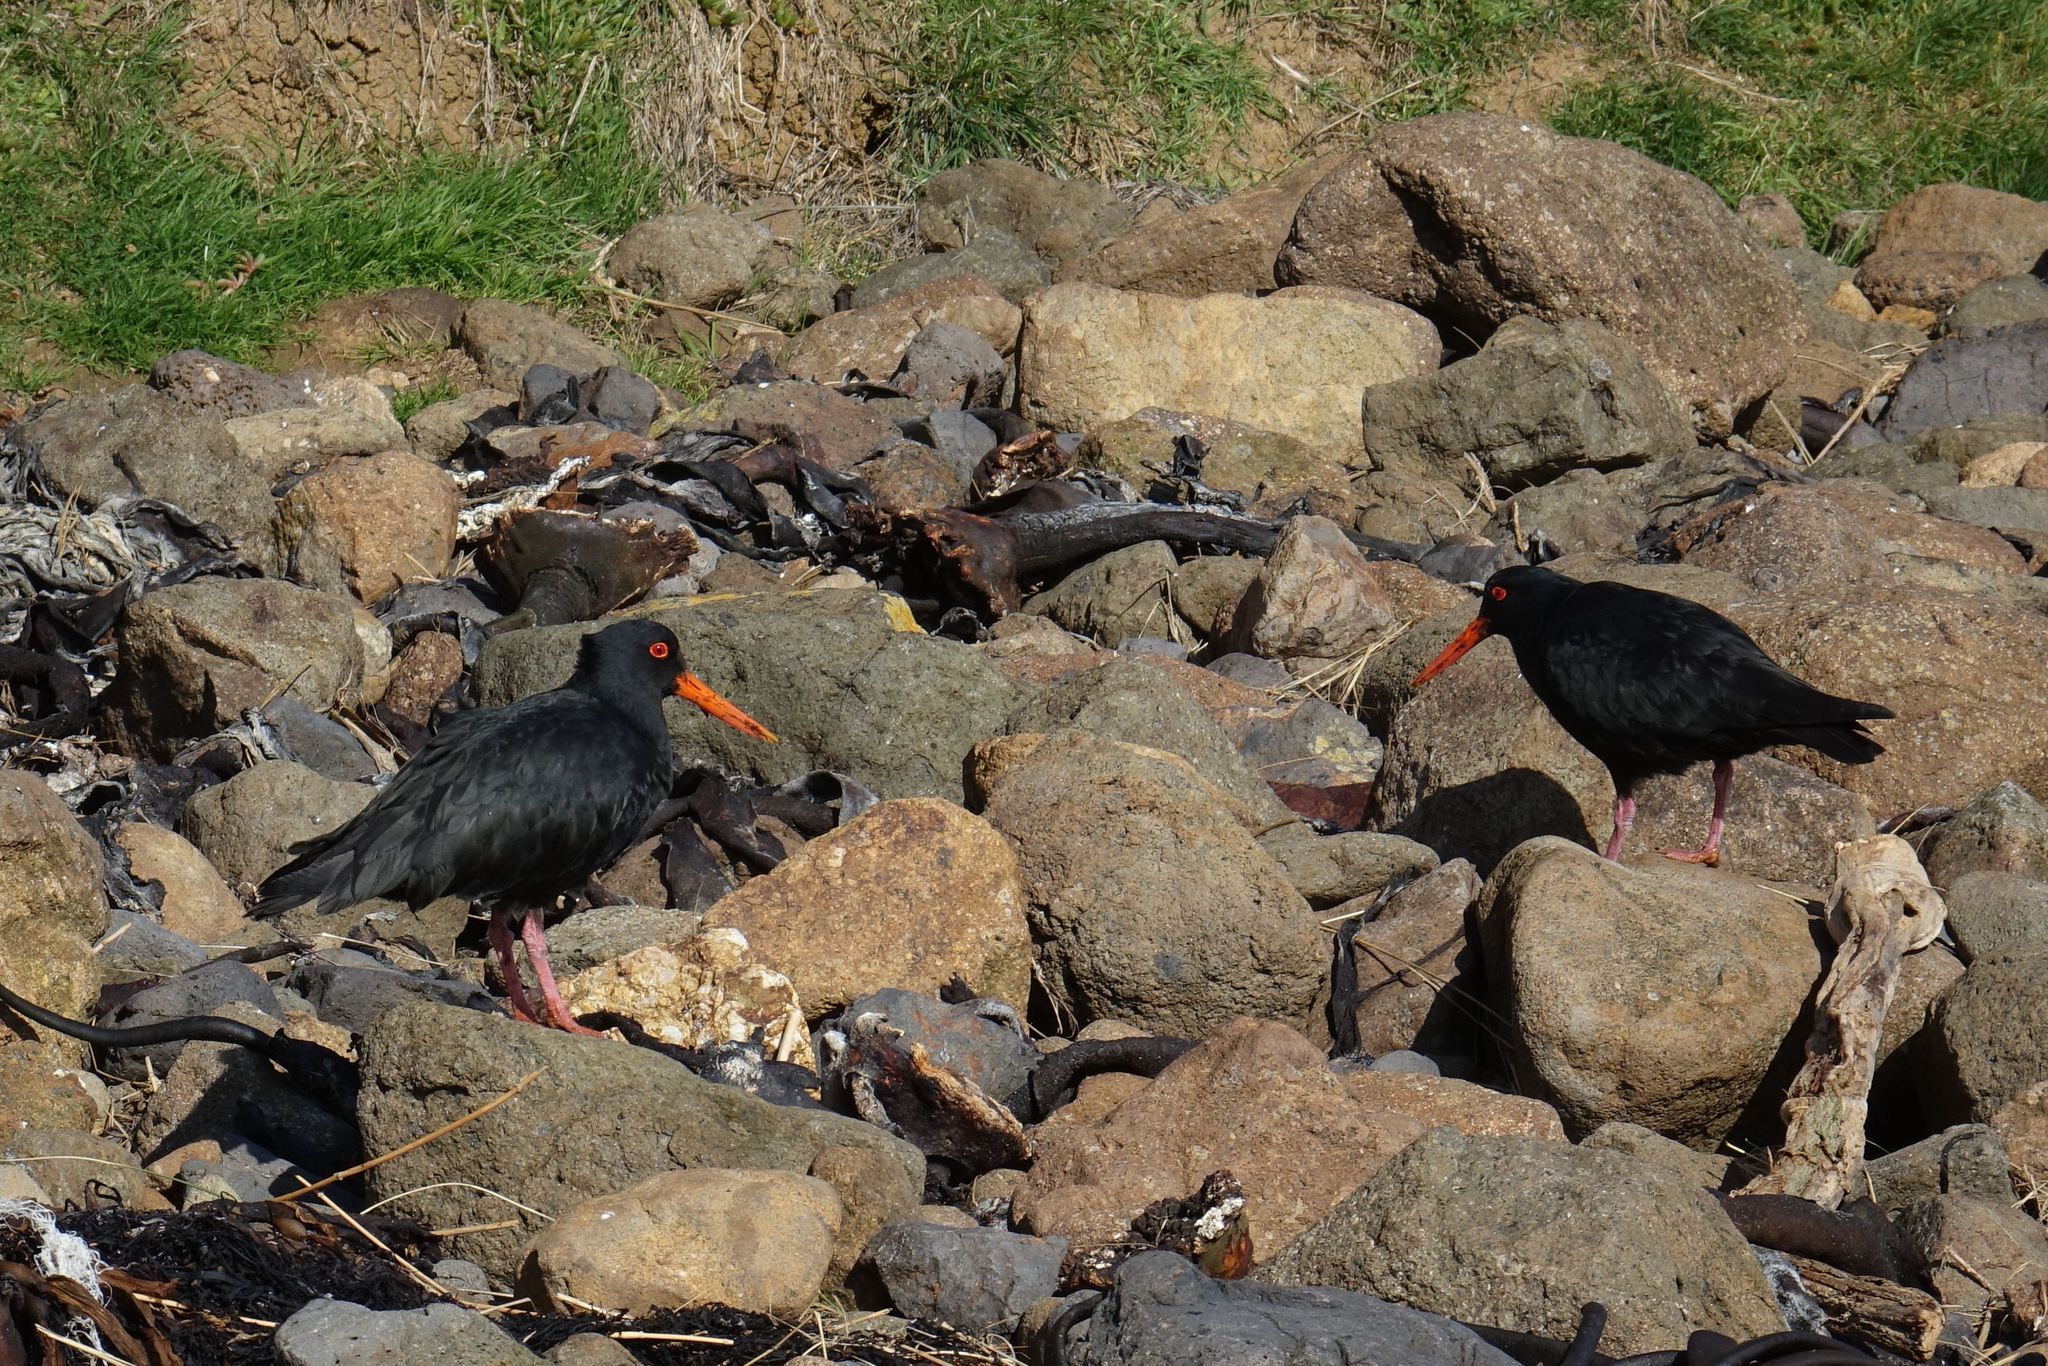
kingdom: Animalia
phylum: Chordata
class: Aves
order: Charadriiformes
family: Haematopodidae
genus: Haematopus
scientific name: Haematopus unicolor
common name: Variable oystercatcher
